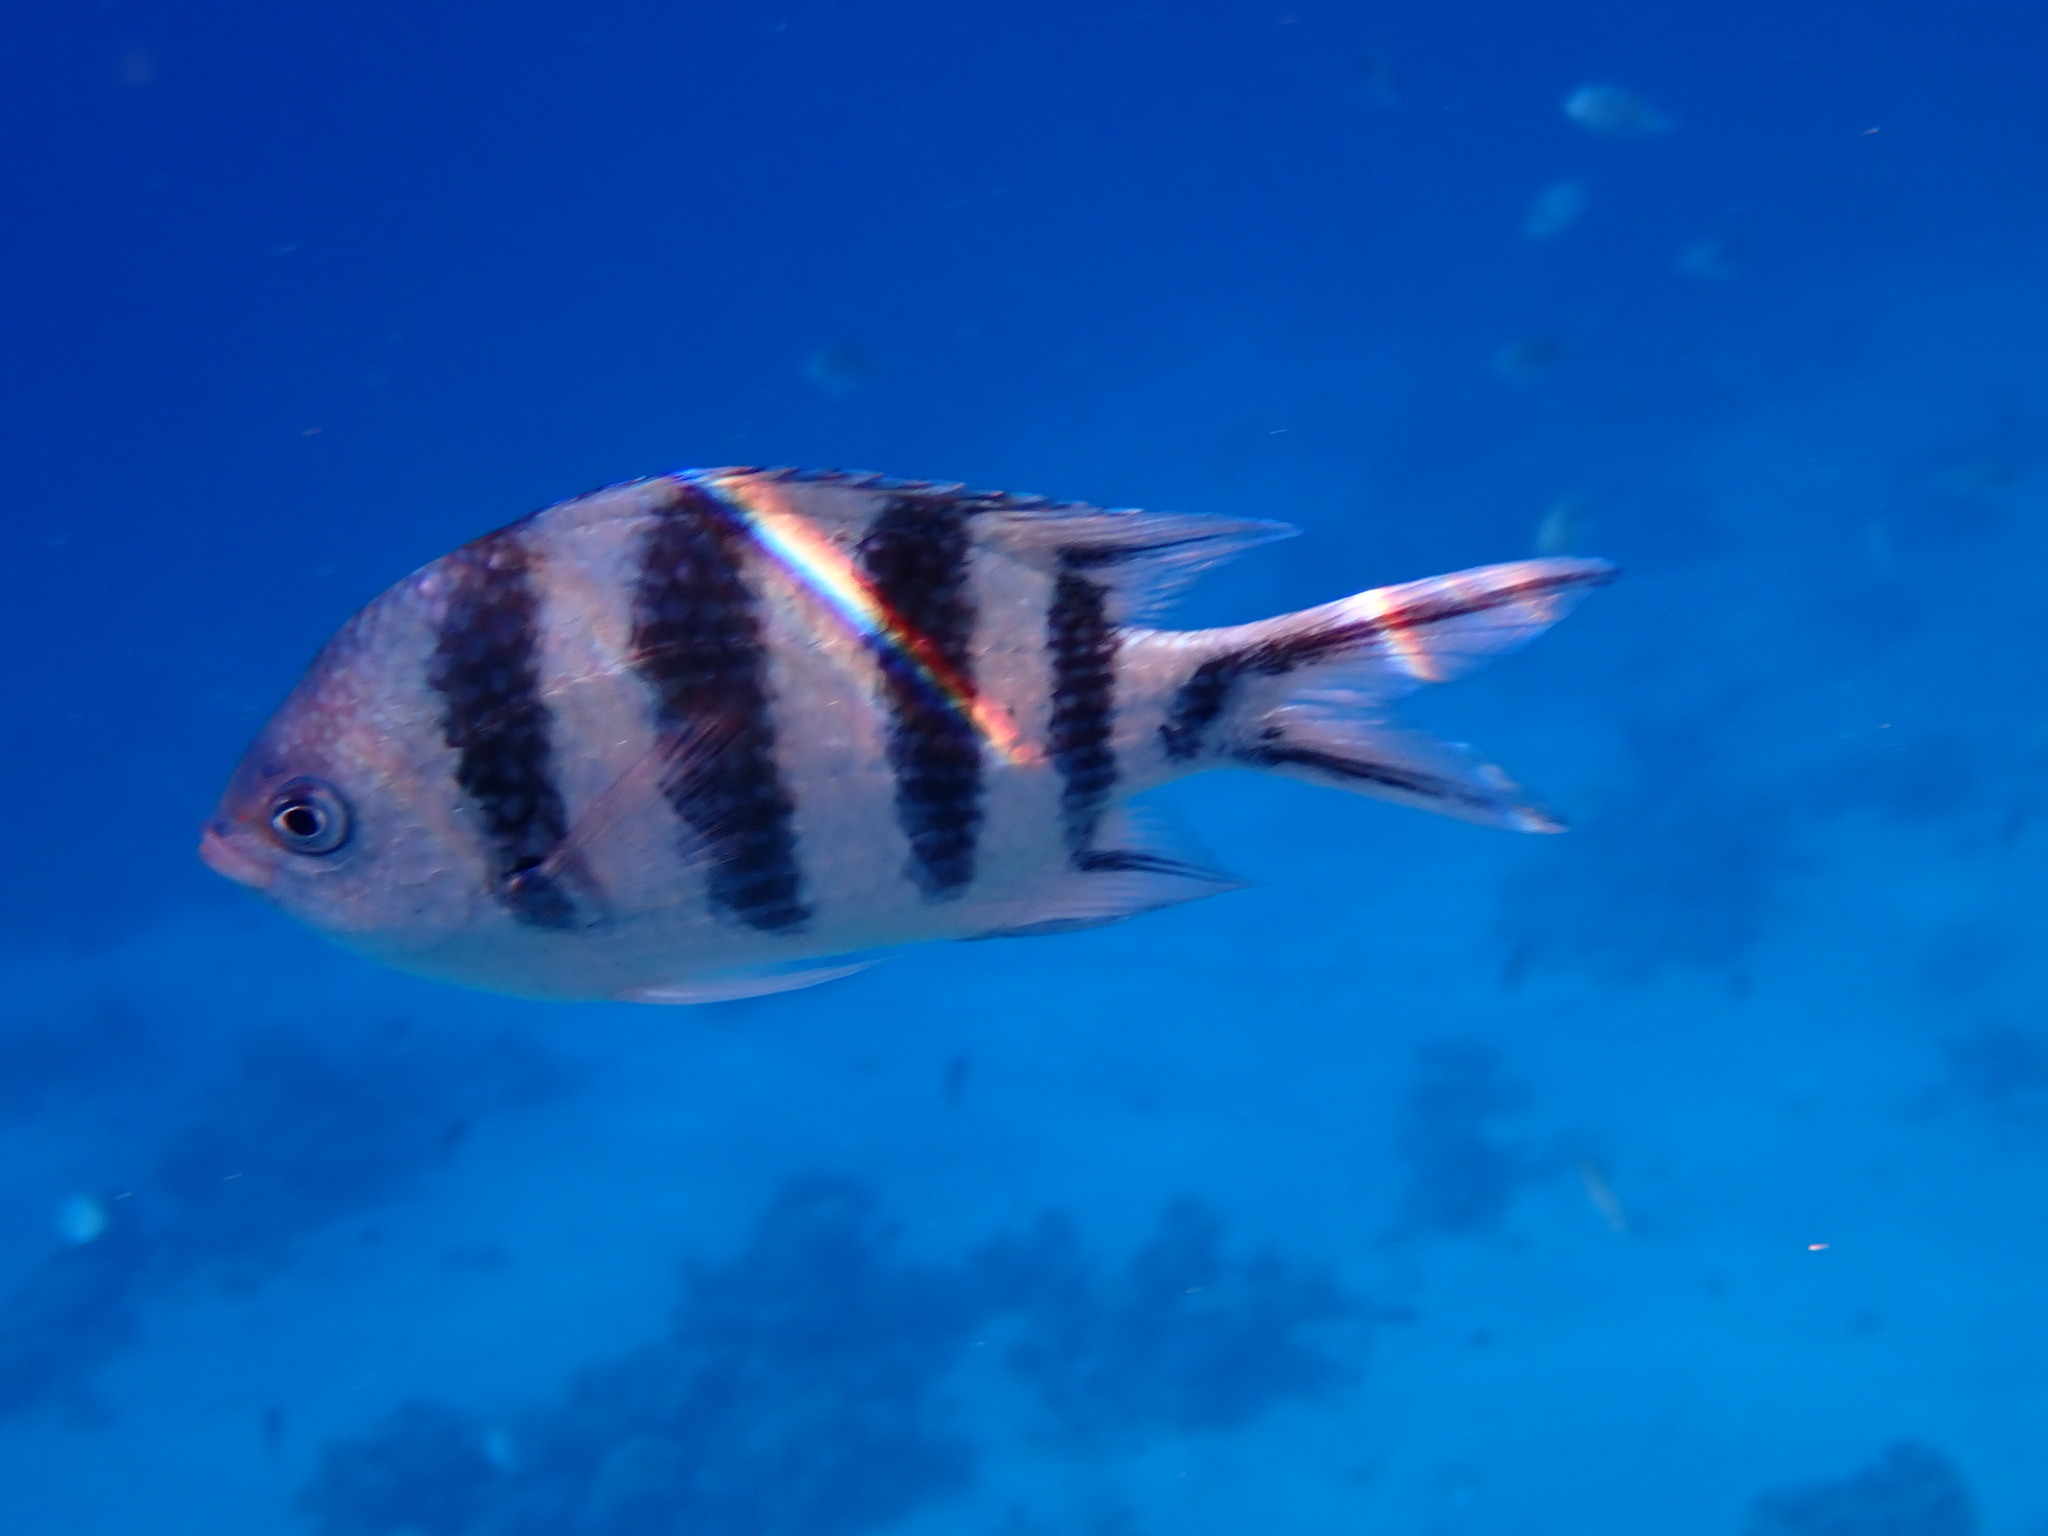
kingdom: Animalia
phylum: Chordata
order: Perciformes
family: Pomacentridae
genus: Abudefduf
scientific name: Abudefduf sexfasciatus
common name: Scissortail sergeant
